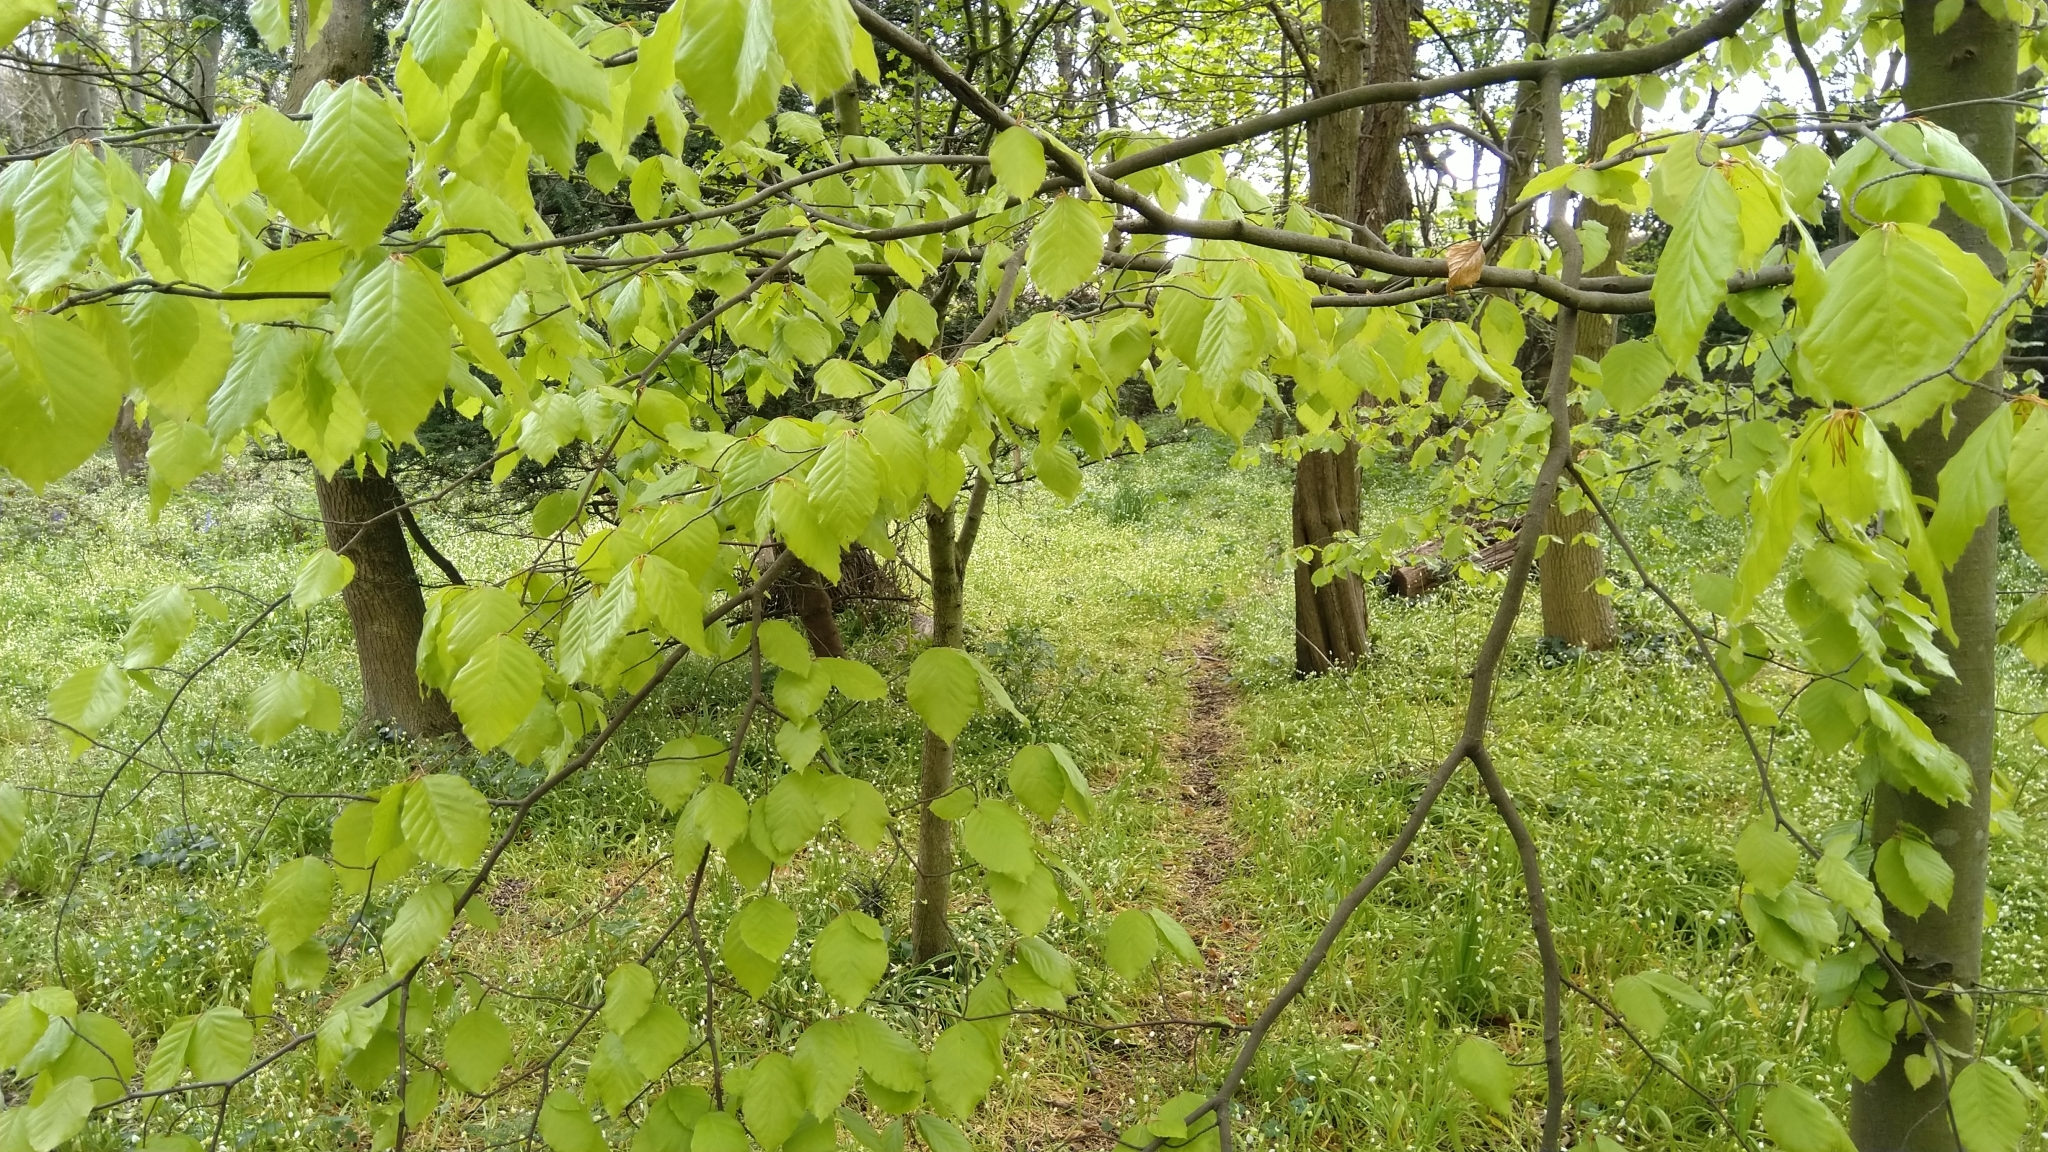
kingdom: Plantae
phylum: Tracheophyta
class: Magnoliopsida
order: Fagales
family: Fagaceae
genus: Fagus
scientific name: Fagus sylvatica
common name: Beech
